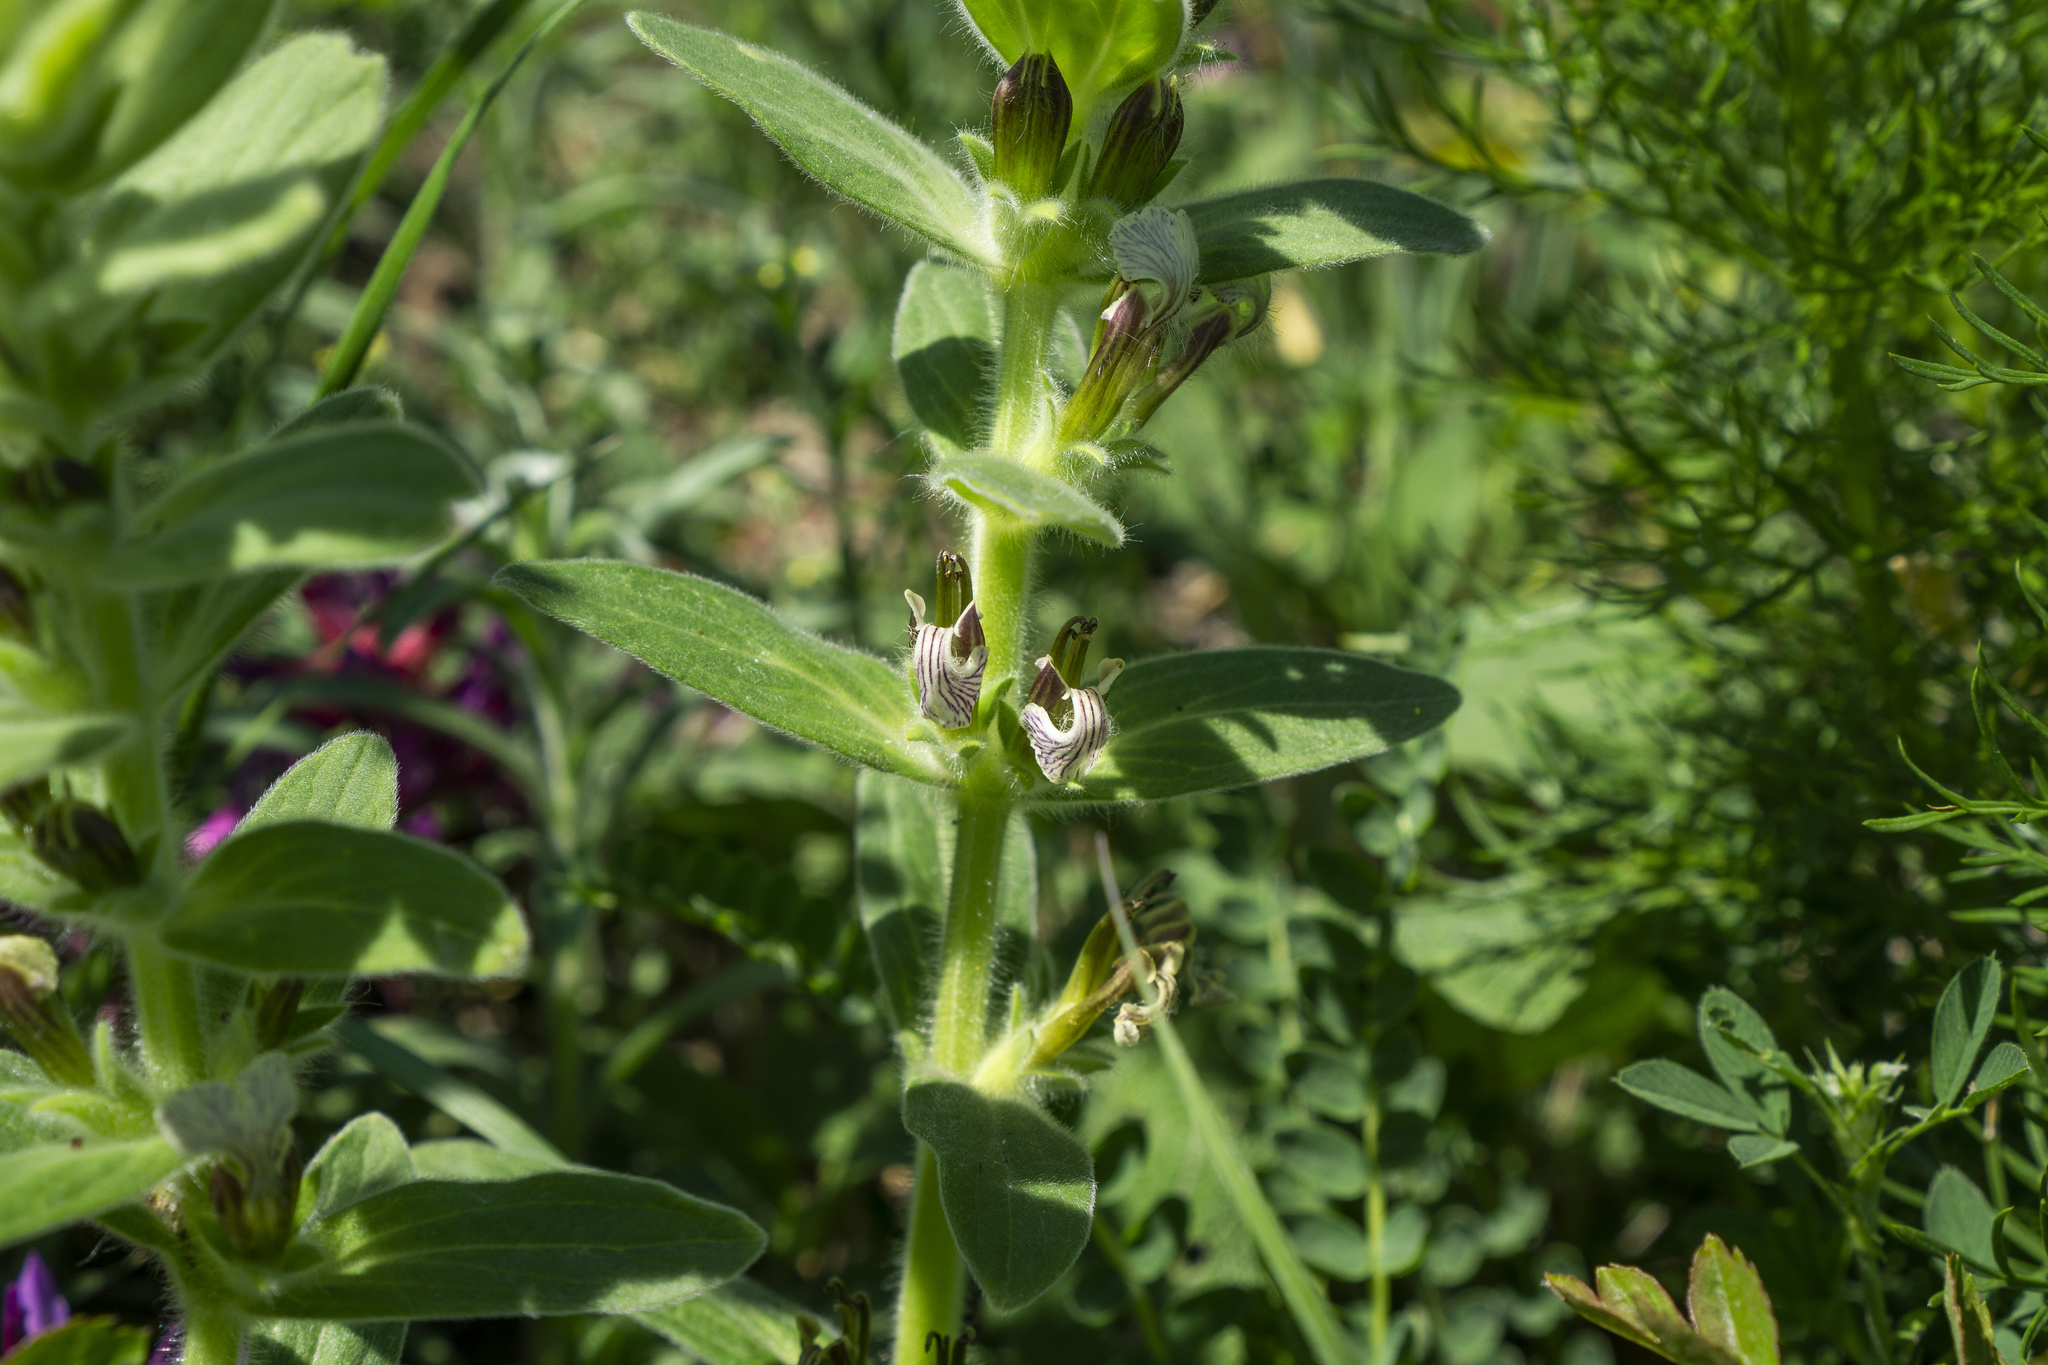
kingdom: Plantae
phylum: Tracheophyta
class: Magnoliopsida
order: Lamiales
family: Lamiaceae
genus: Ajuga
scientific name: Ajuga laxmannii
